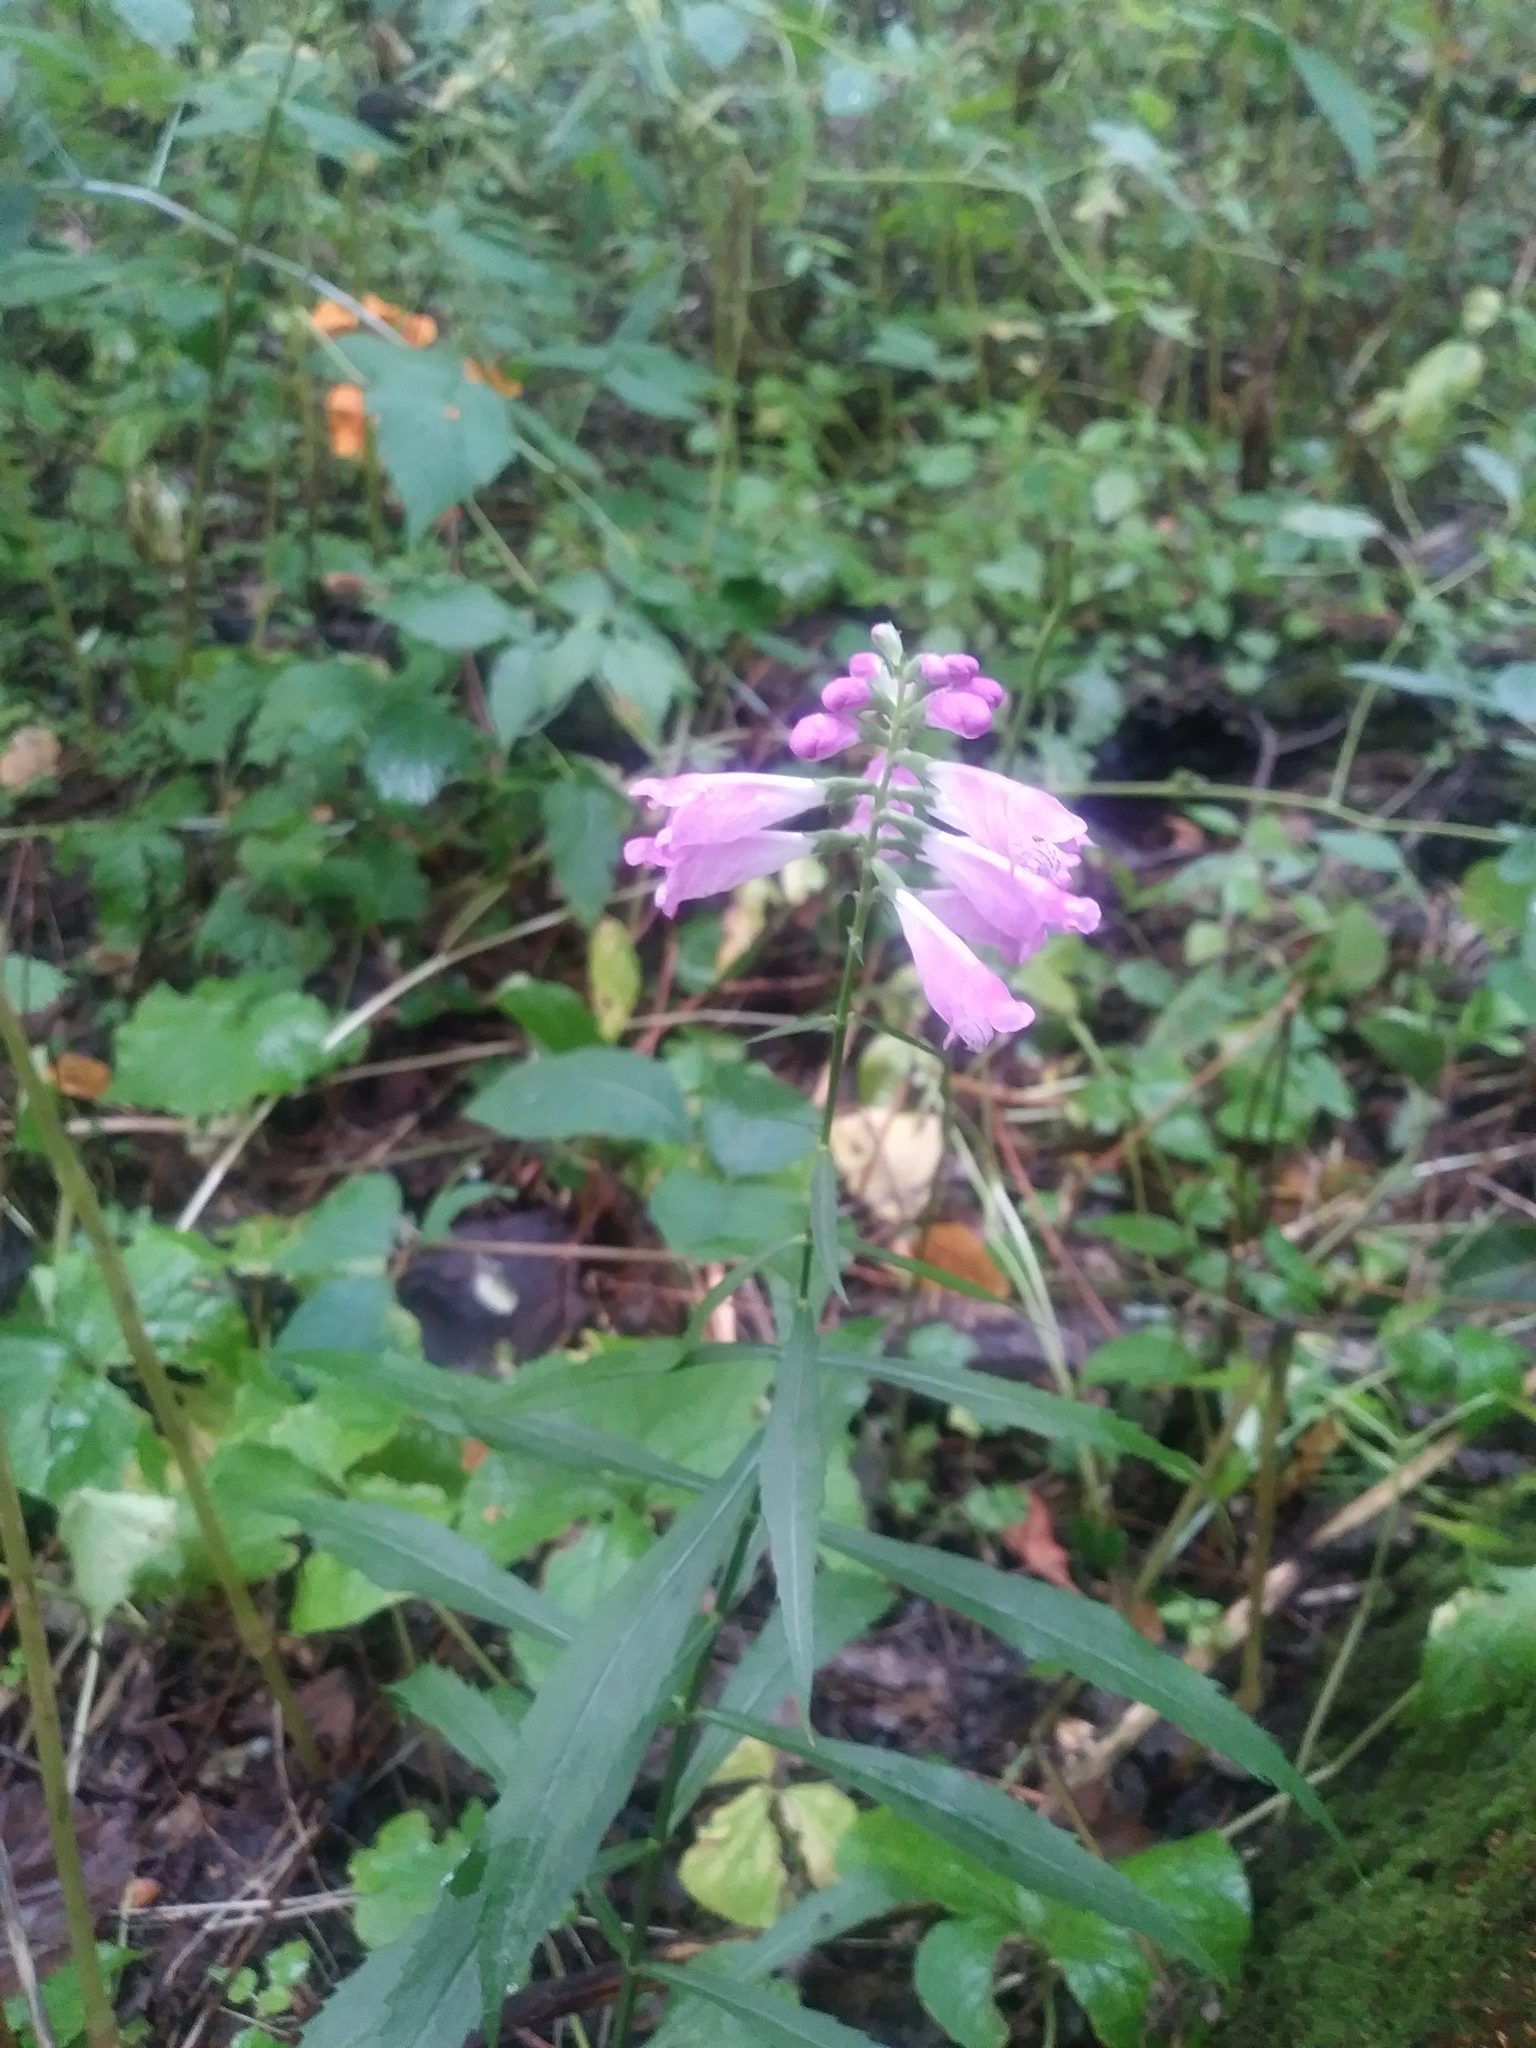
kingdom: Plantae
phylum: Tracheophyta
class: Magnoliopsida
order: Lamiales
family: Lamiaceae
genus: Physostegia
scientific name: Physostegia virginiana
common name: Obedient-plant
